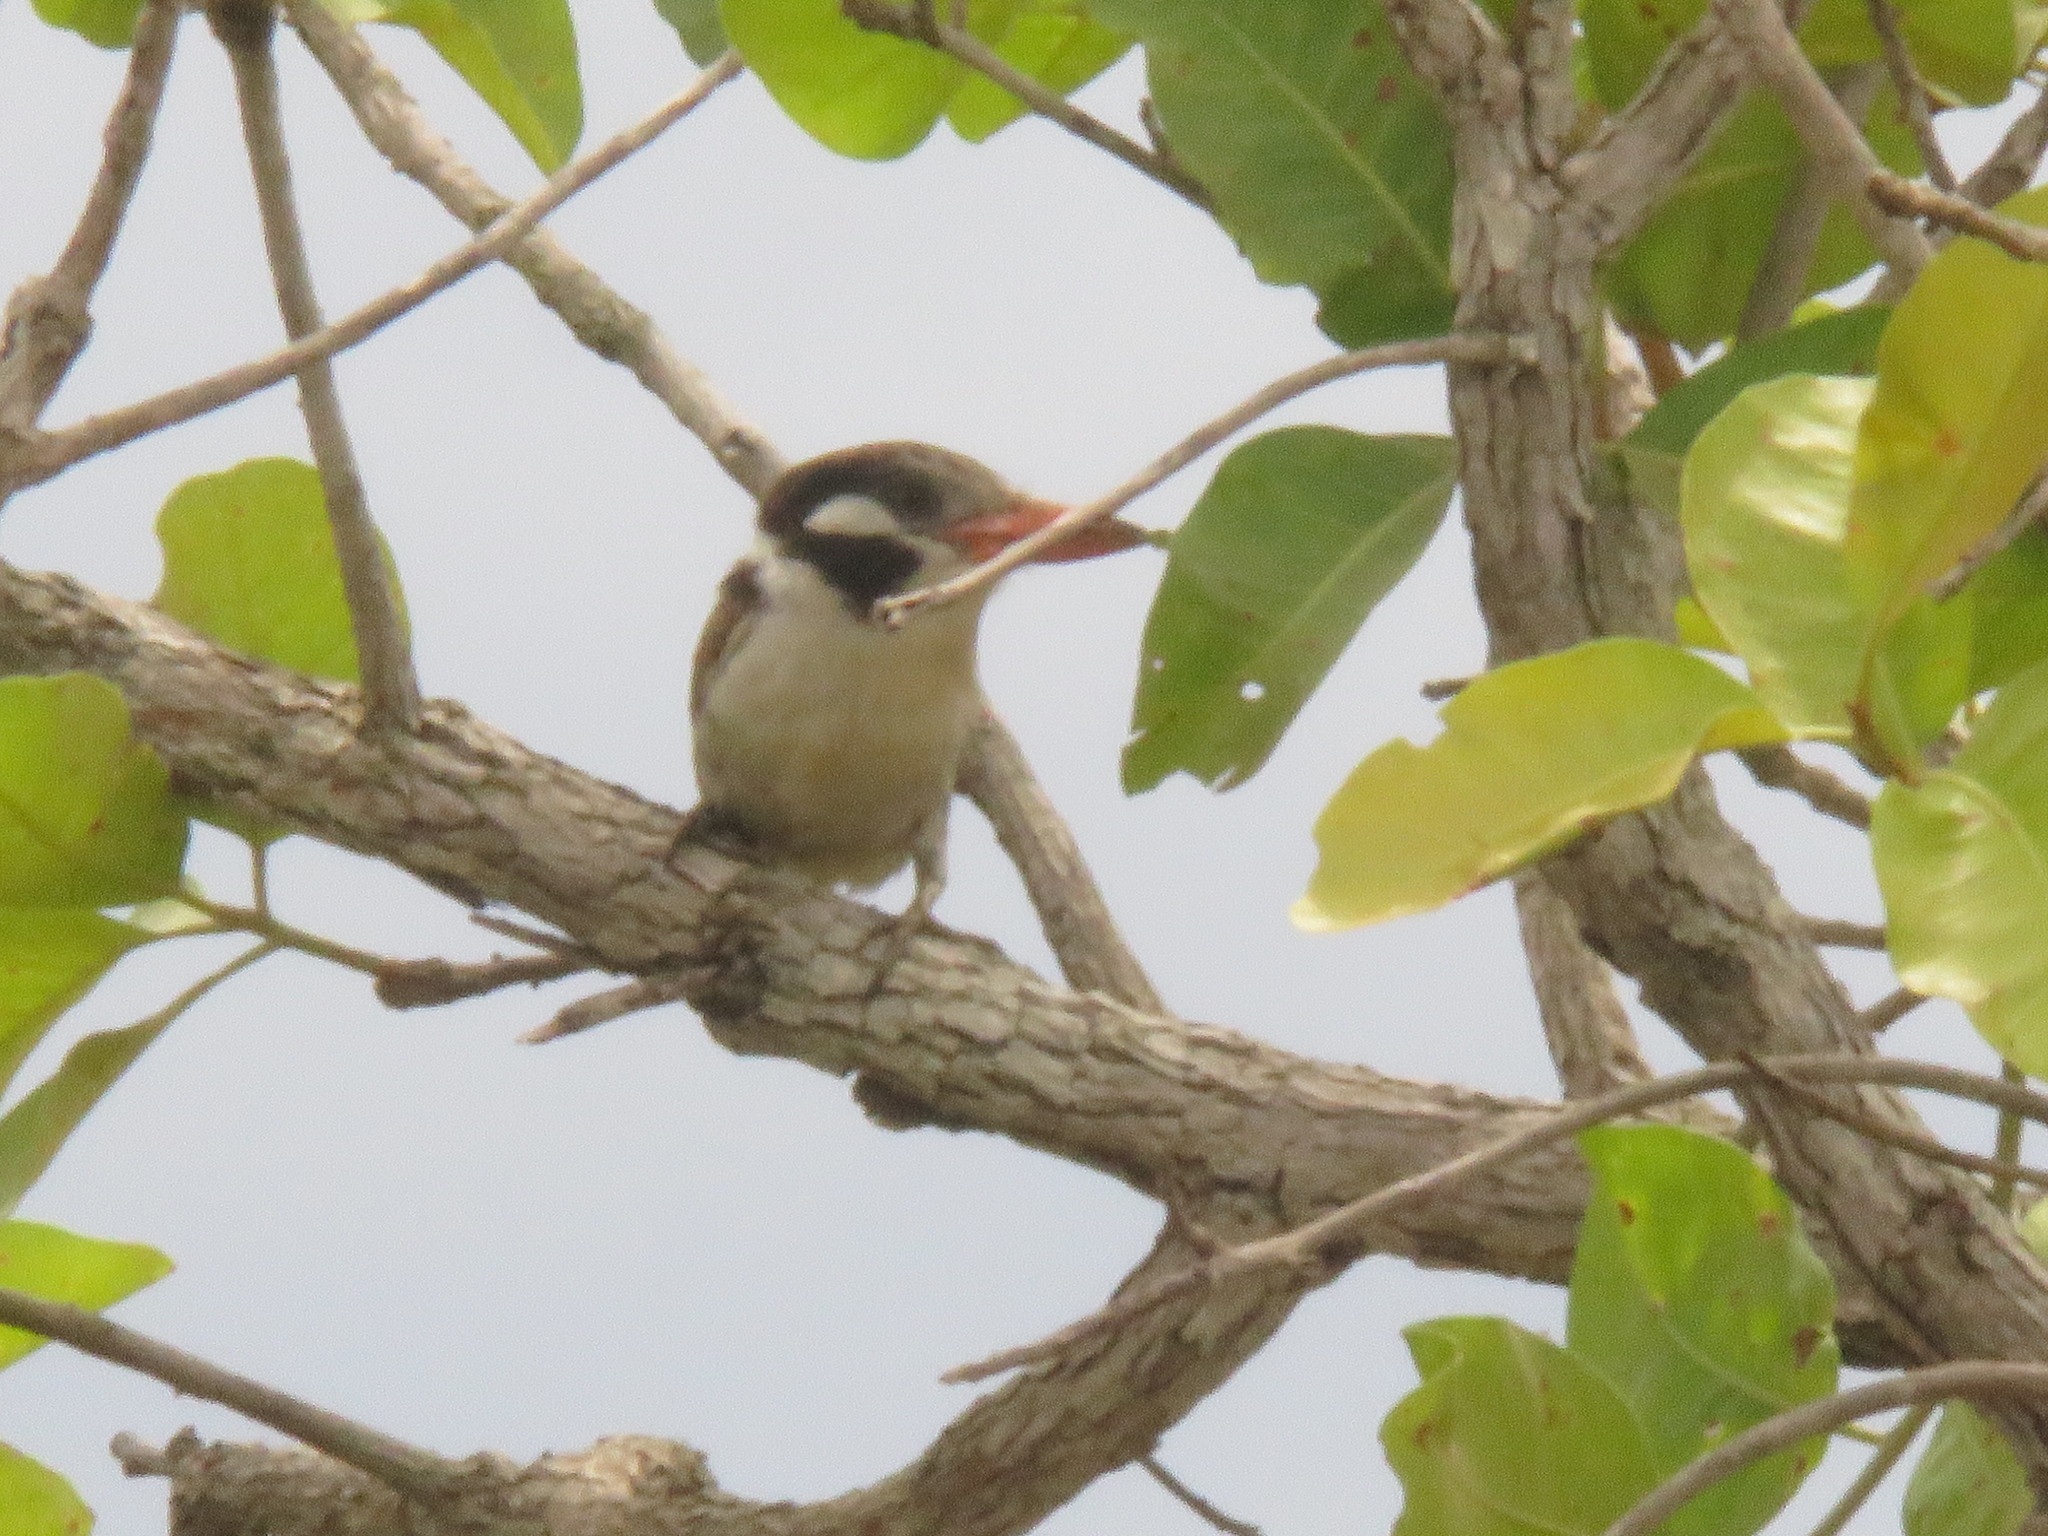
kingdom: Animalia
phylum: Chordata
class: Aves
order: Piciformes
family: Bucconidae
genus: Nystalus
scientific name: Nystalus chacuru
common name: White-eared puffbird
